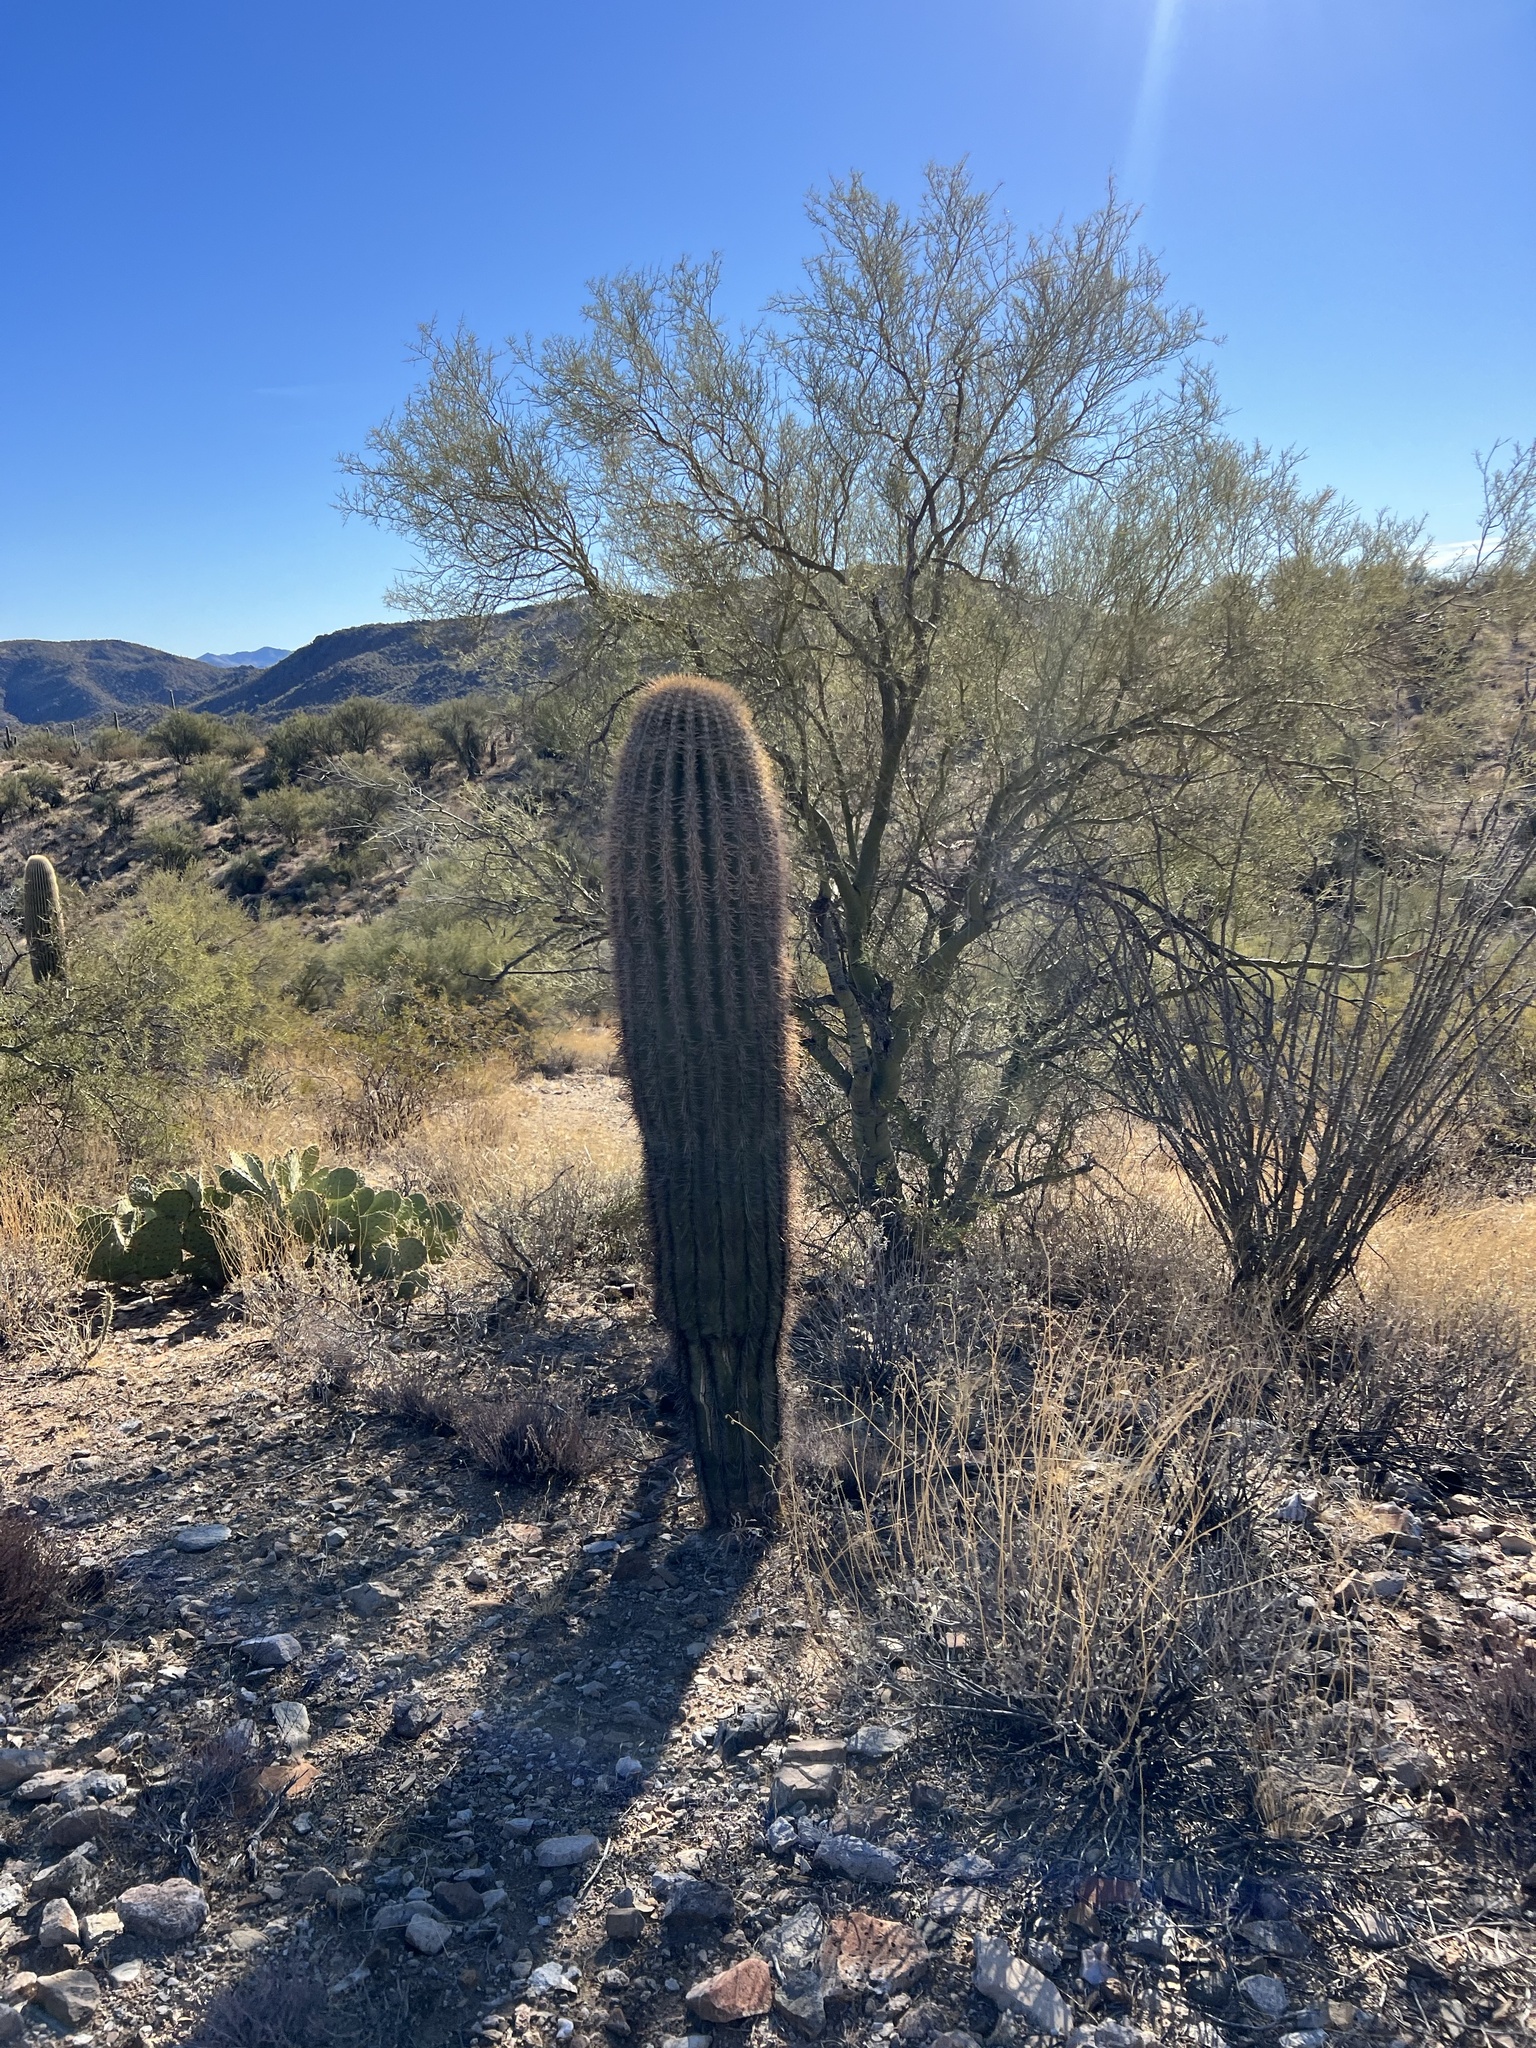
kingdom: Plantae
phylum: Tracheophyta
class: Magnoliopsida
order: Caryophyllales
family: Cactaceae
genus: Carnegiea
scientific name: Carnegiea gigantea
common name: Saguaro
